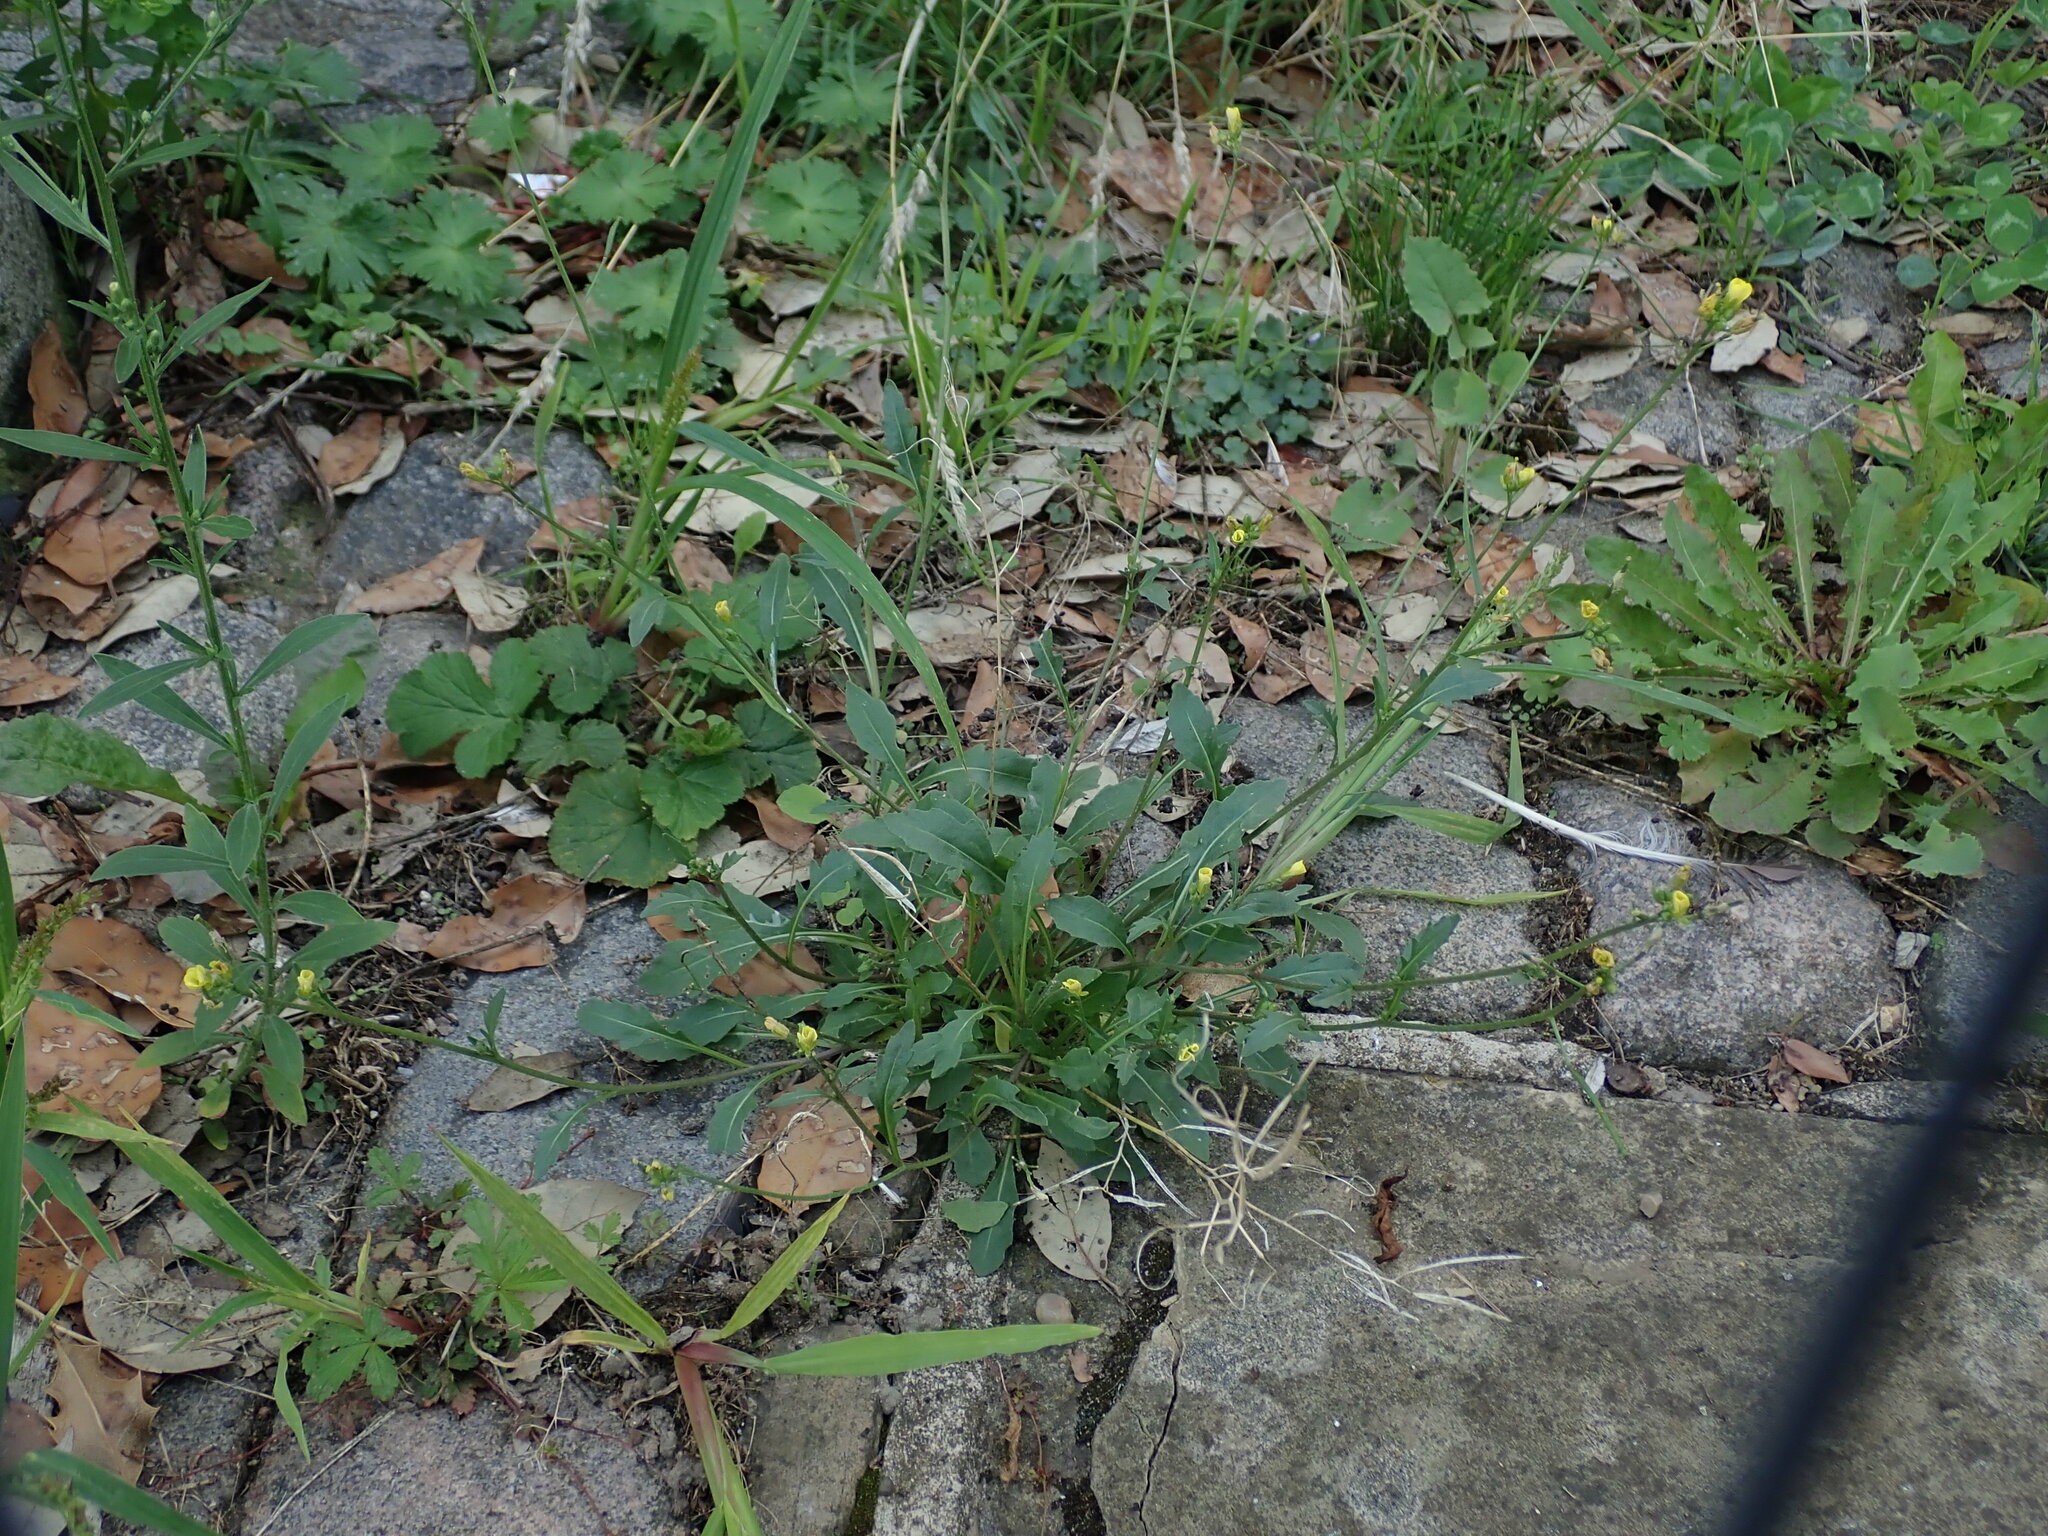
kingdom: Plantae
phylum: Tracheophyta
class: Magnoliopsida
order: Brassicales
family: Brassicaceae
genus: Diplotaxis
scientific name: Diplotaxis muralis
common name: Annual wall-rocket
